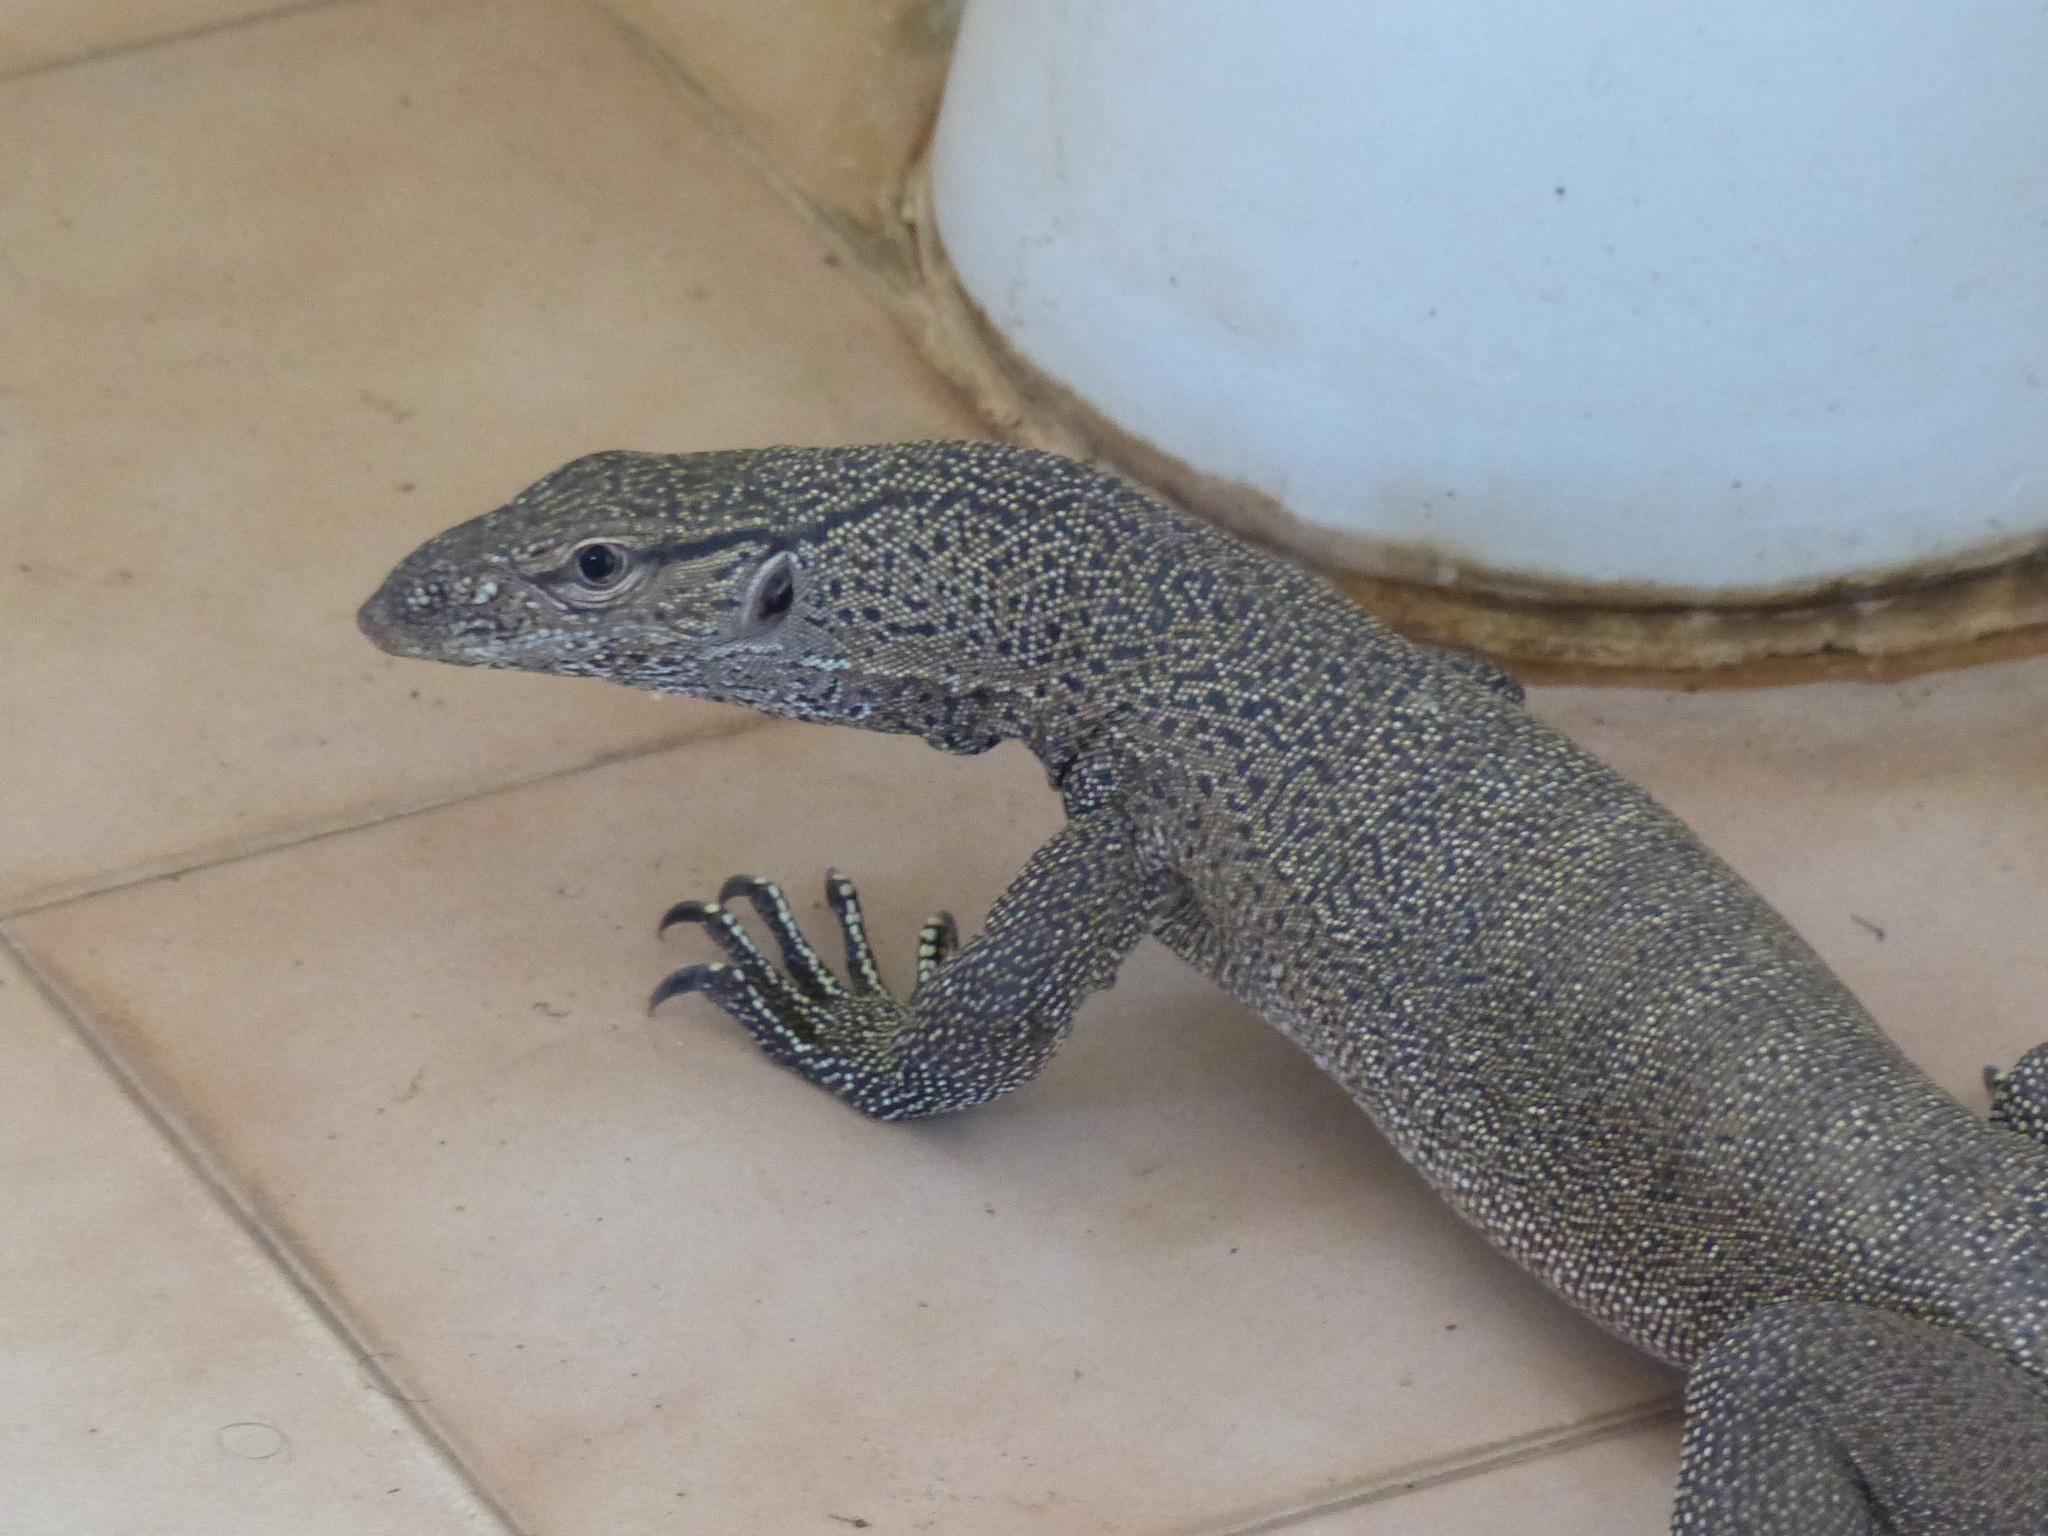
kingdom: Animalia
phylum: Chordata
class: Squamata
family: Varanidae
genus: Varanus
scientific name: Varanus bengalensis
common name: Bengal monitor
